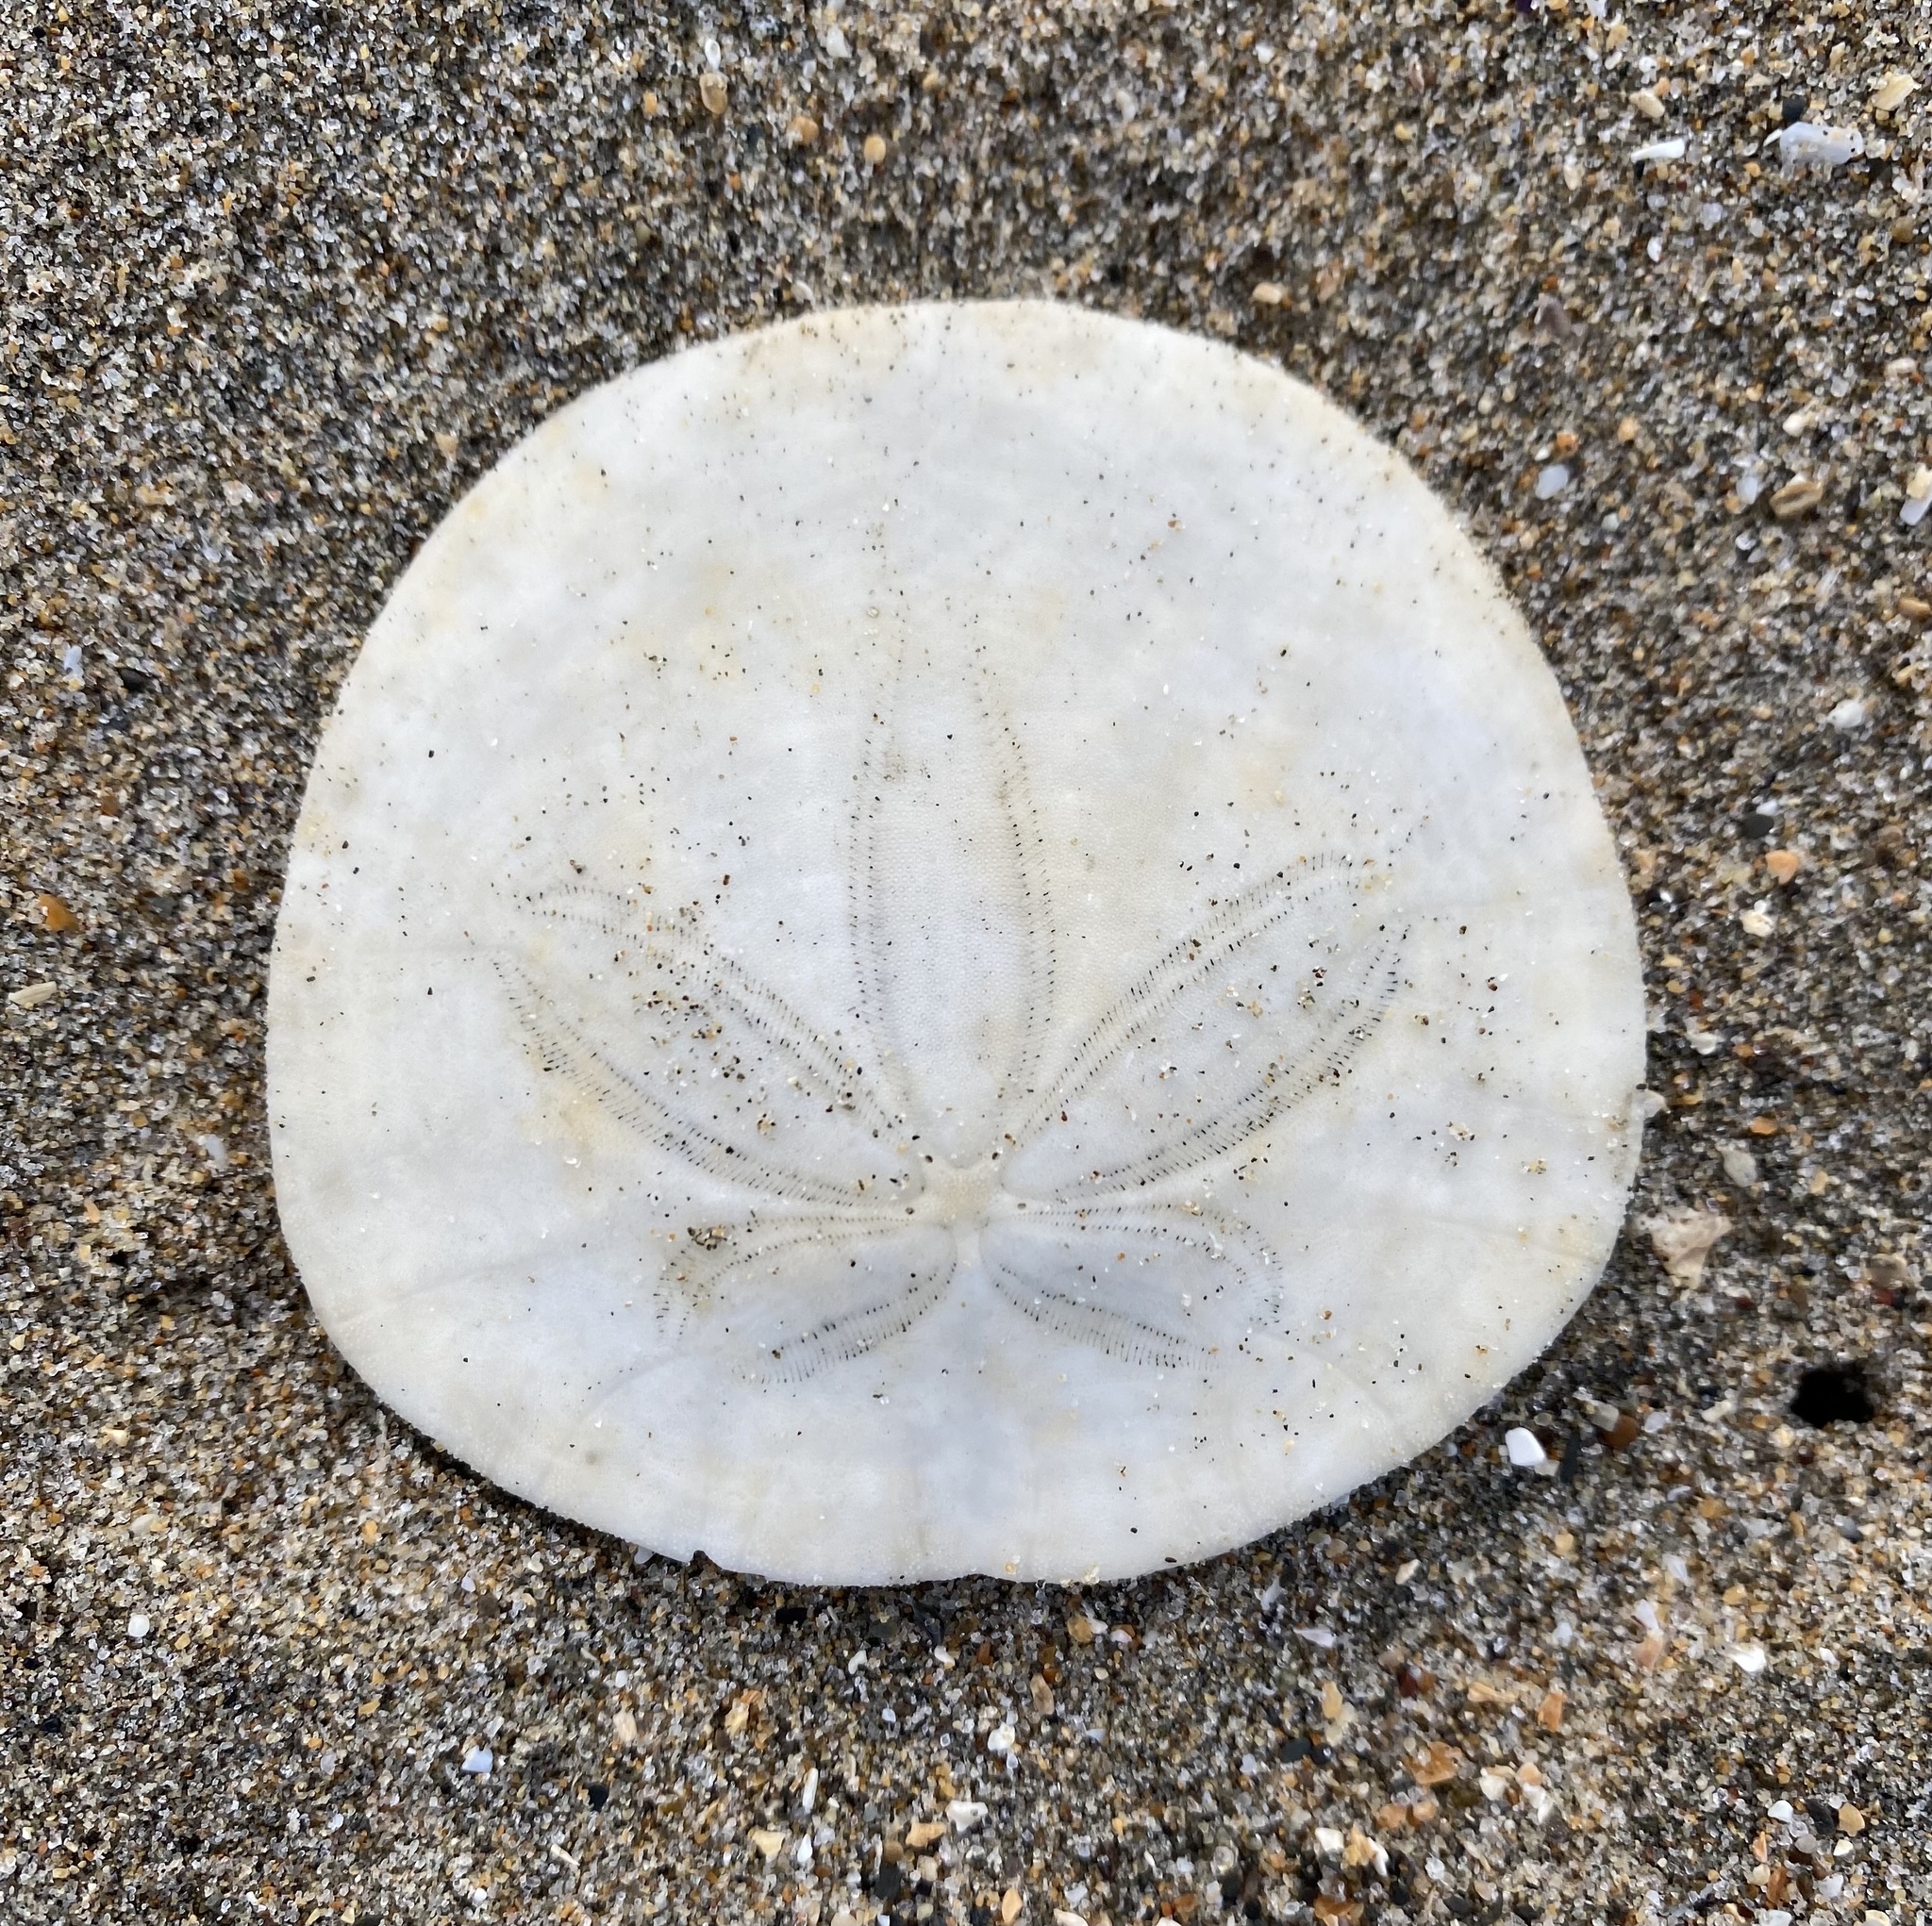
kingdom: Animalia
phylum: Echinodermata
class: Echinoidea
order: Echinolampadacea
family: Dendrasteridae
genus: Dendraster
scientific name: Dendraster excentricus
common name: Eccentric sand dollar sea urchin
